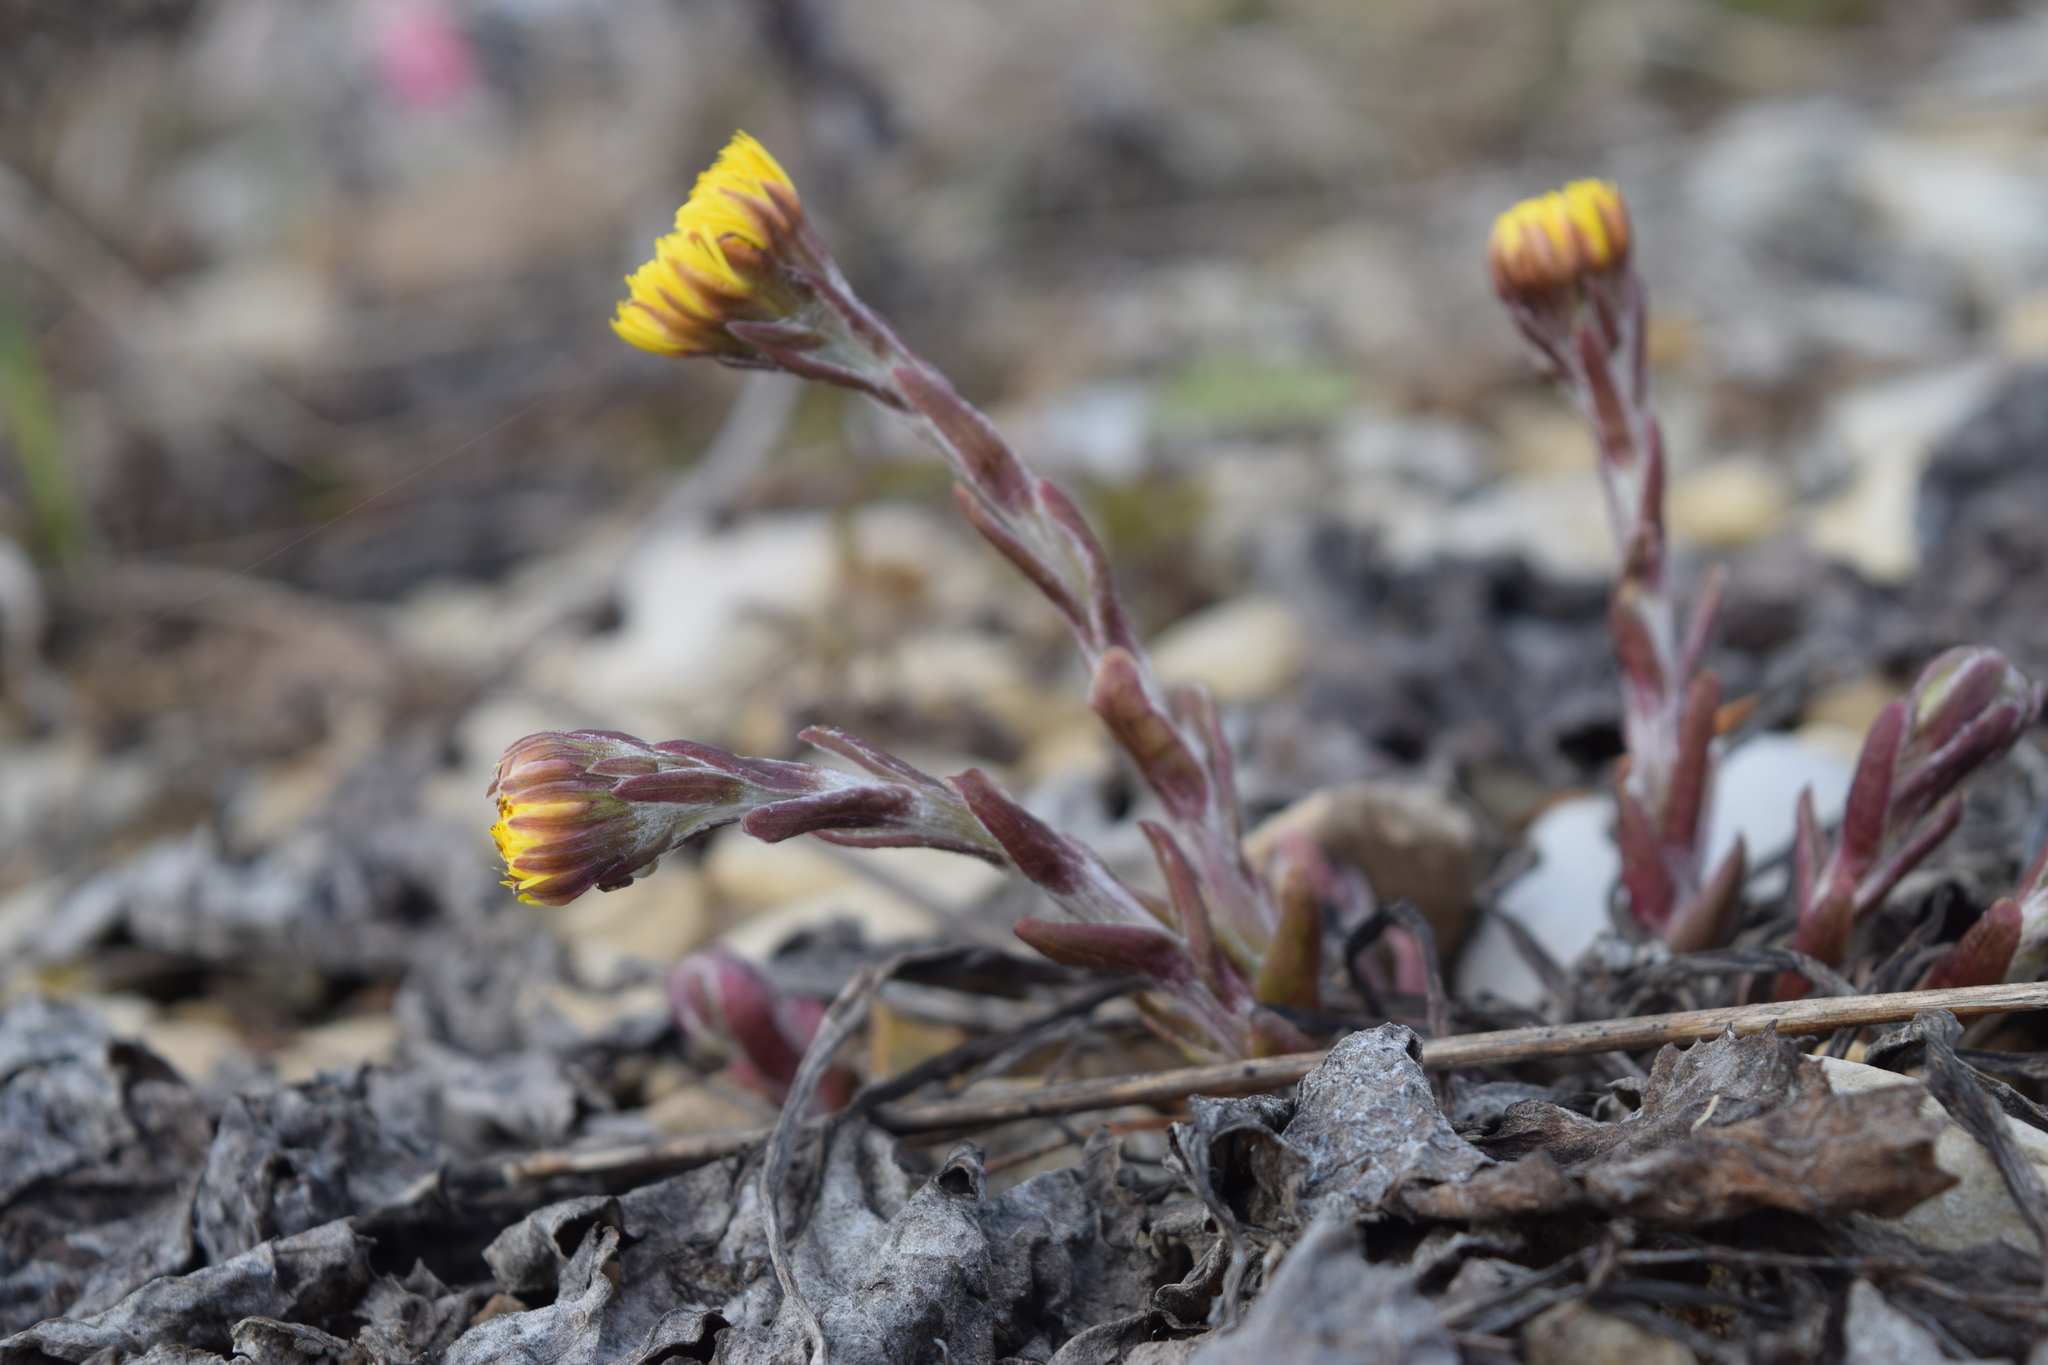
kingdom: Plantae
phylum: Tracheophyta
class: Magnoliopsida
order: Asterales
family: Asteraceae
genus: Tussilago
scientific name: Tussilago farfara
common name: Coltsfoot
